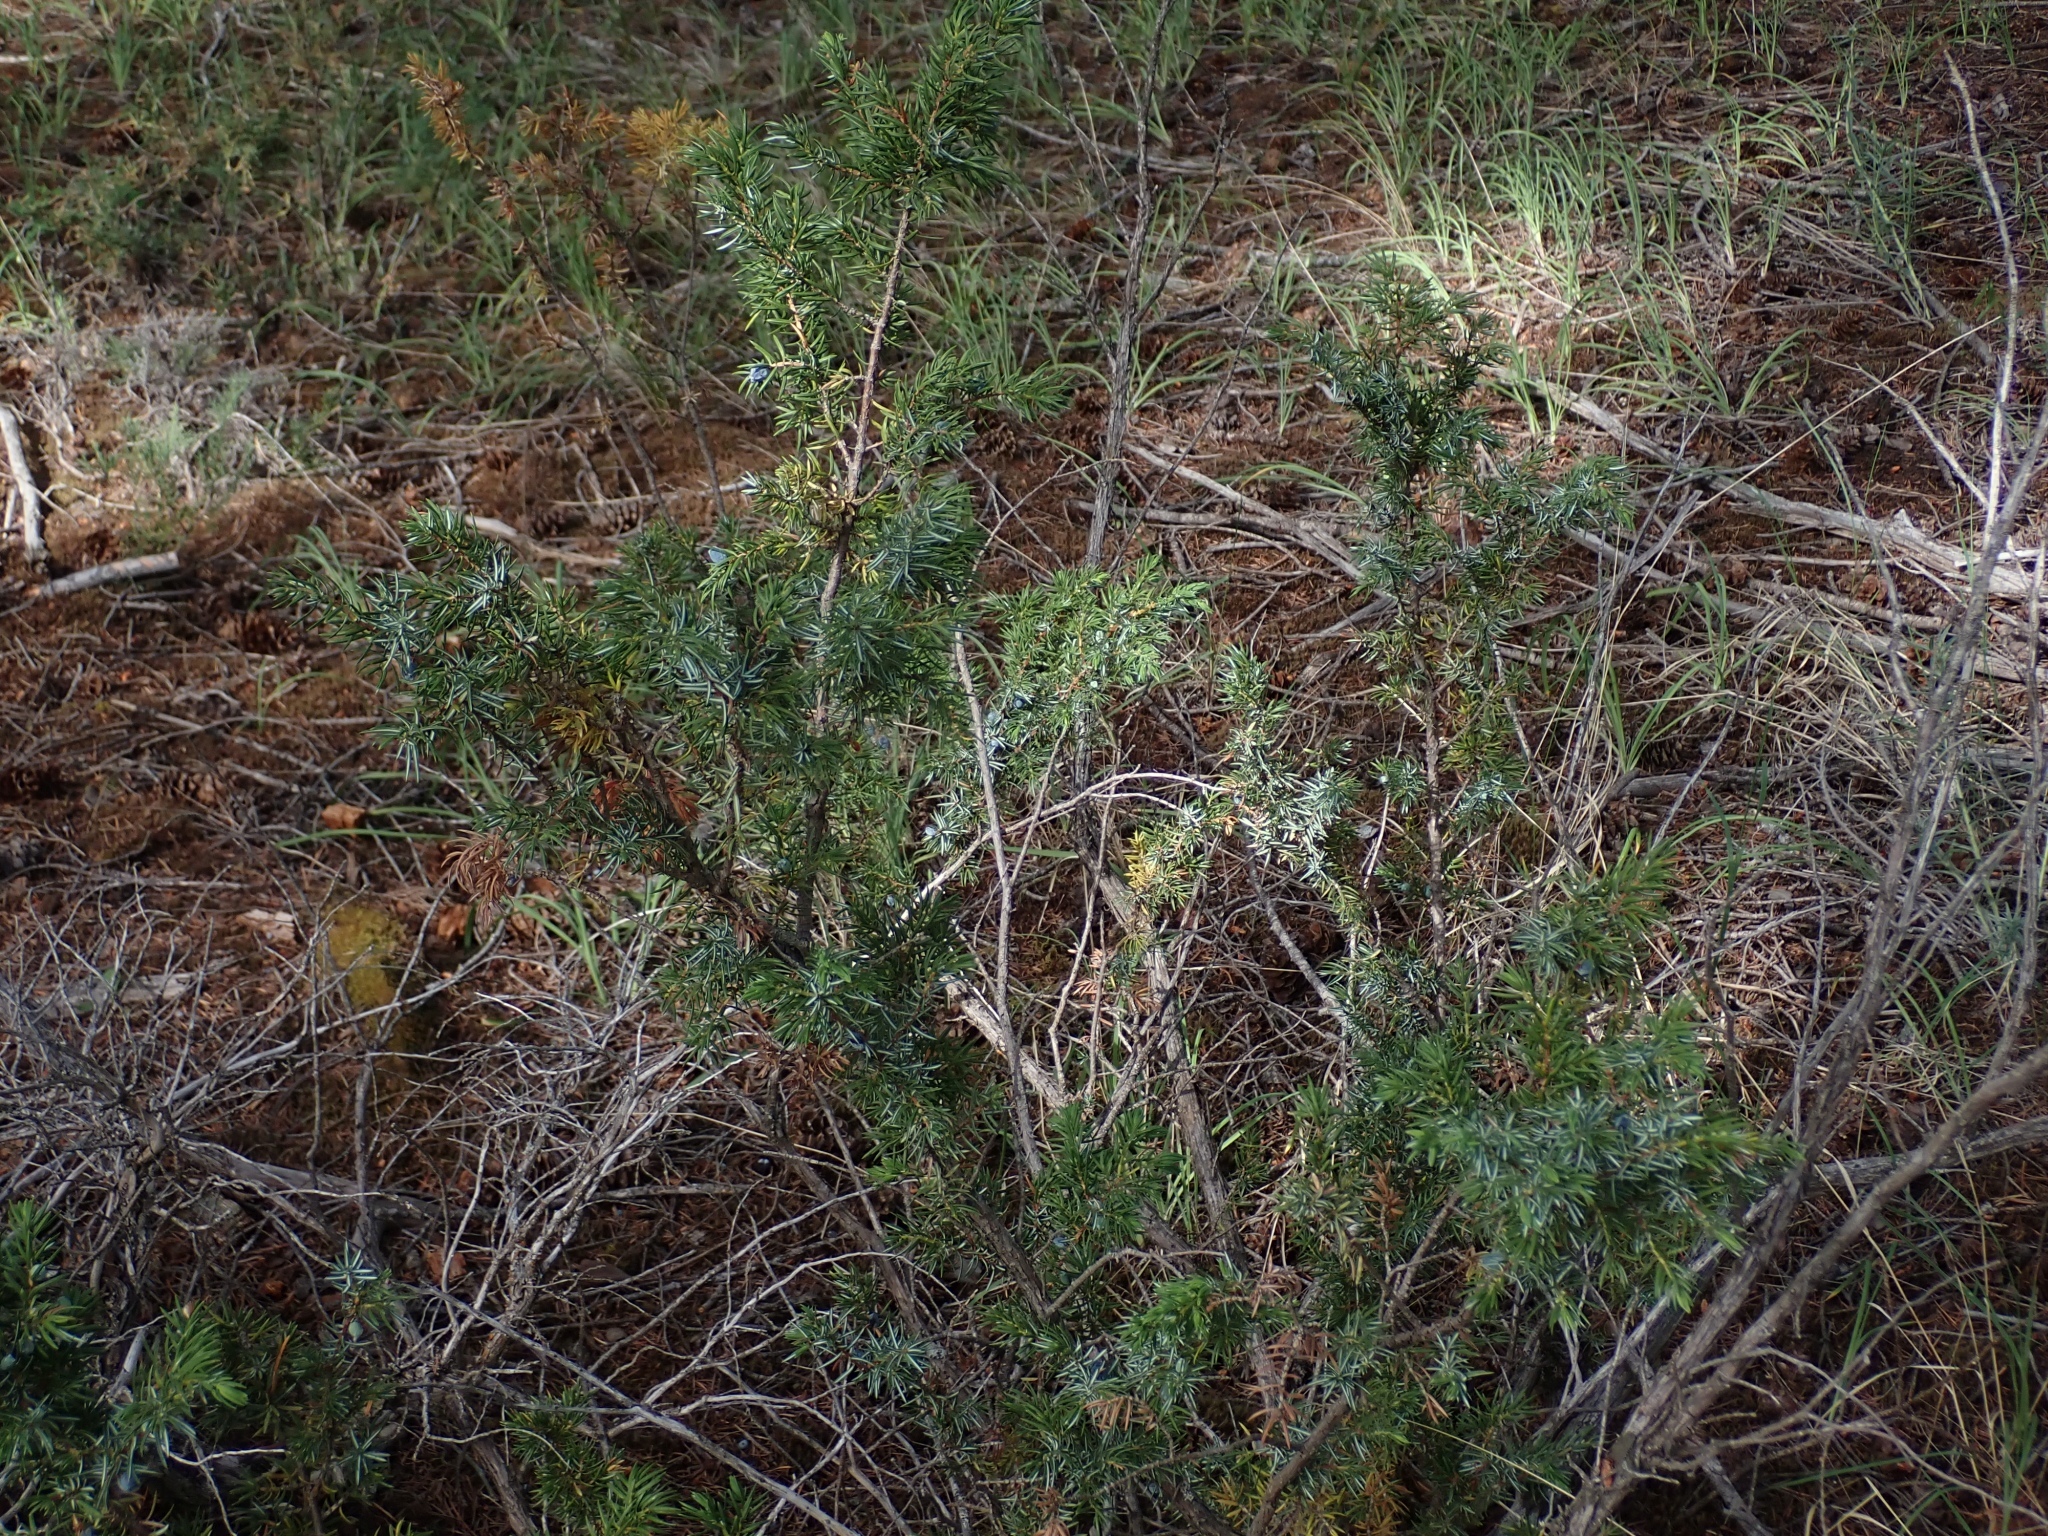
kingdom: Plantae
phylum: Tracheophyta
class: Pinopsida
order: Pinales
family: Cupressaceae
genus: Juniperus
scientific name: Juniperus communis
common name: Common juniper
